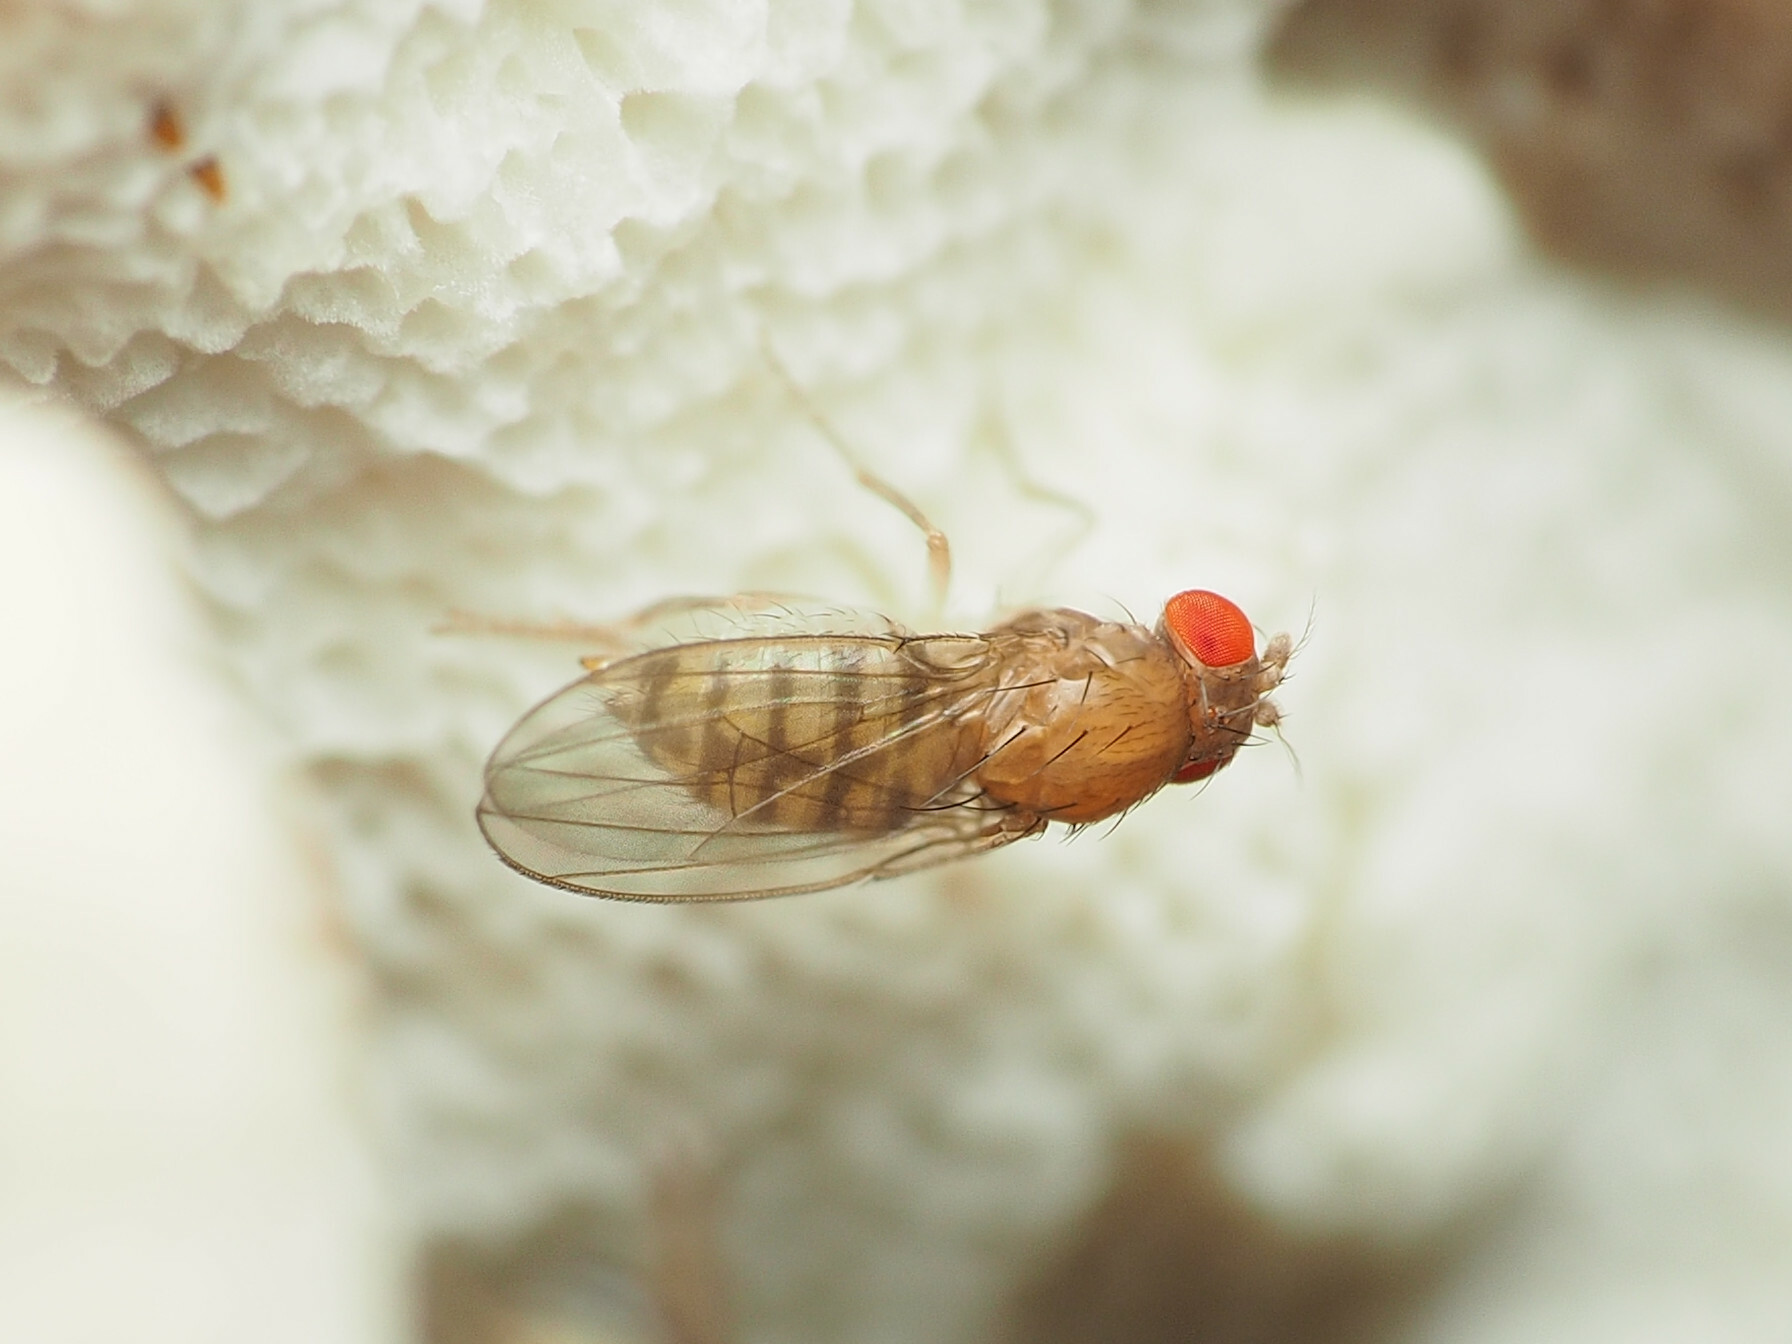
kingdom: Animalia
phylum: Arthropoda
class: Insecta
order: Diptera
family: Drosophilidae
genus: Hirtodrosophila
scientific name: Hirtodrosophila duncani
